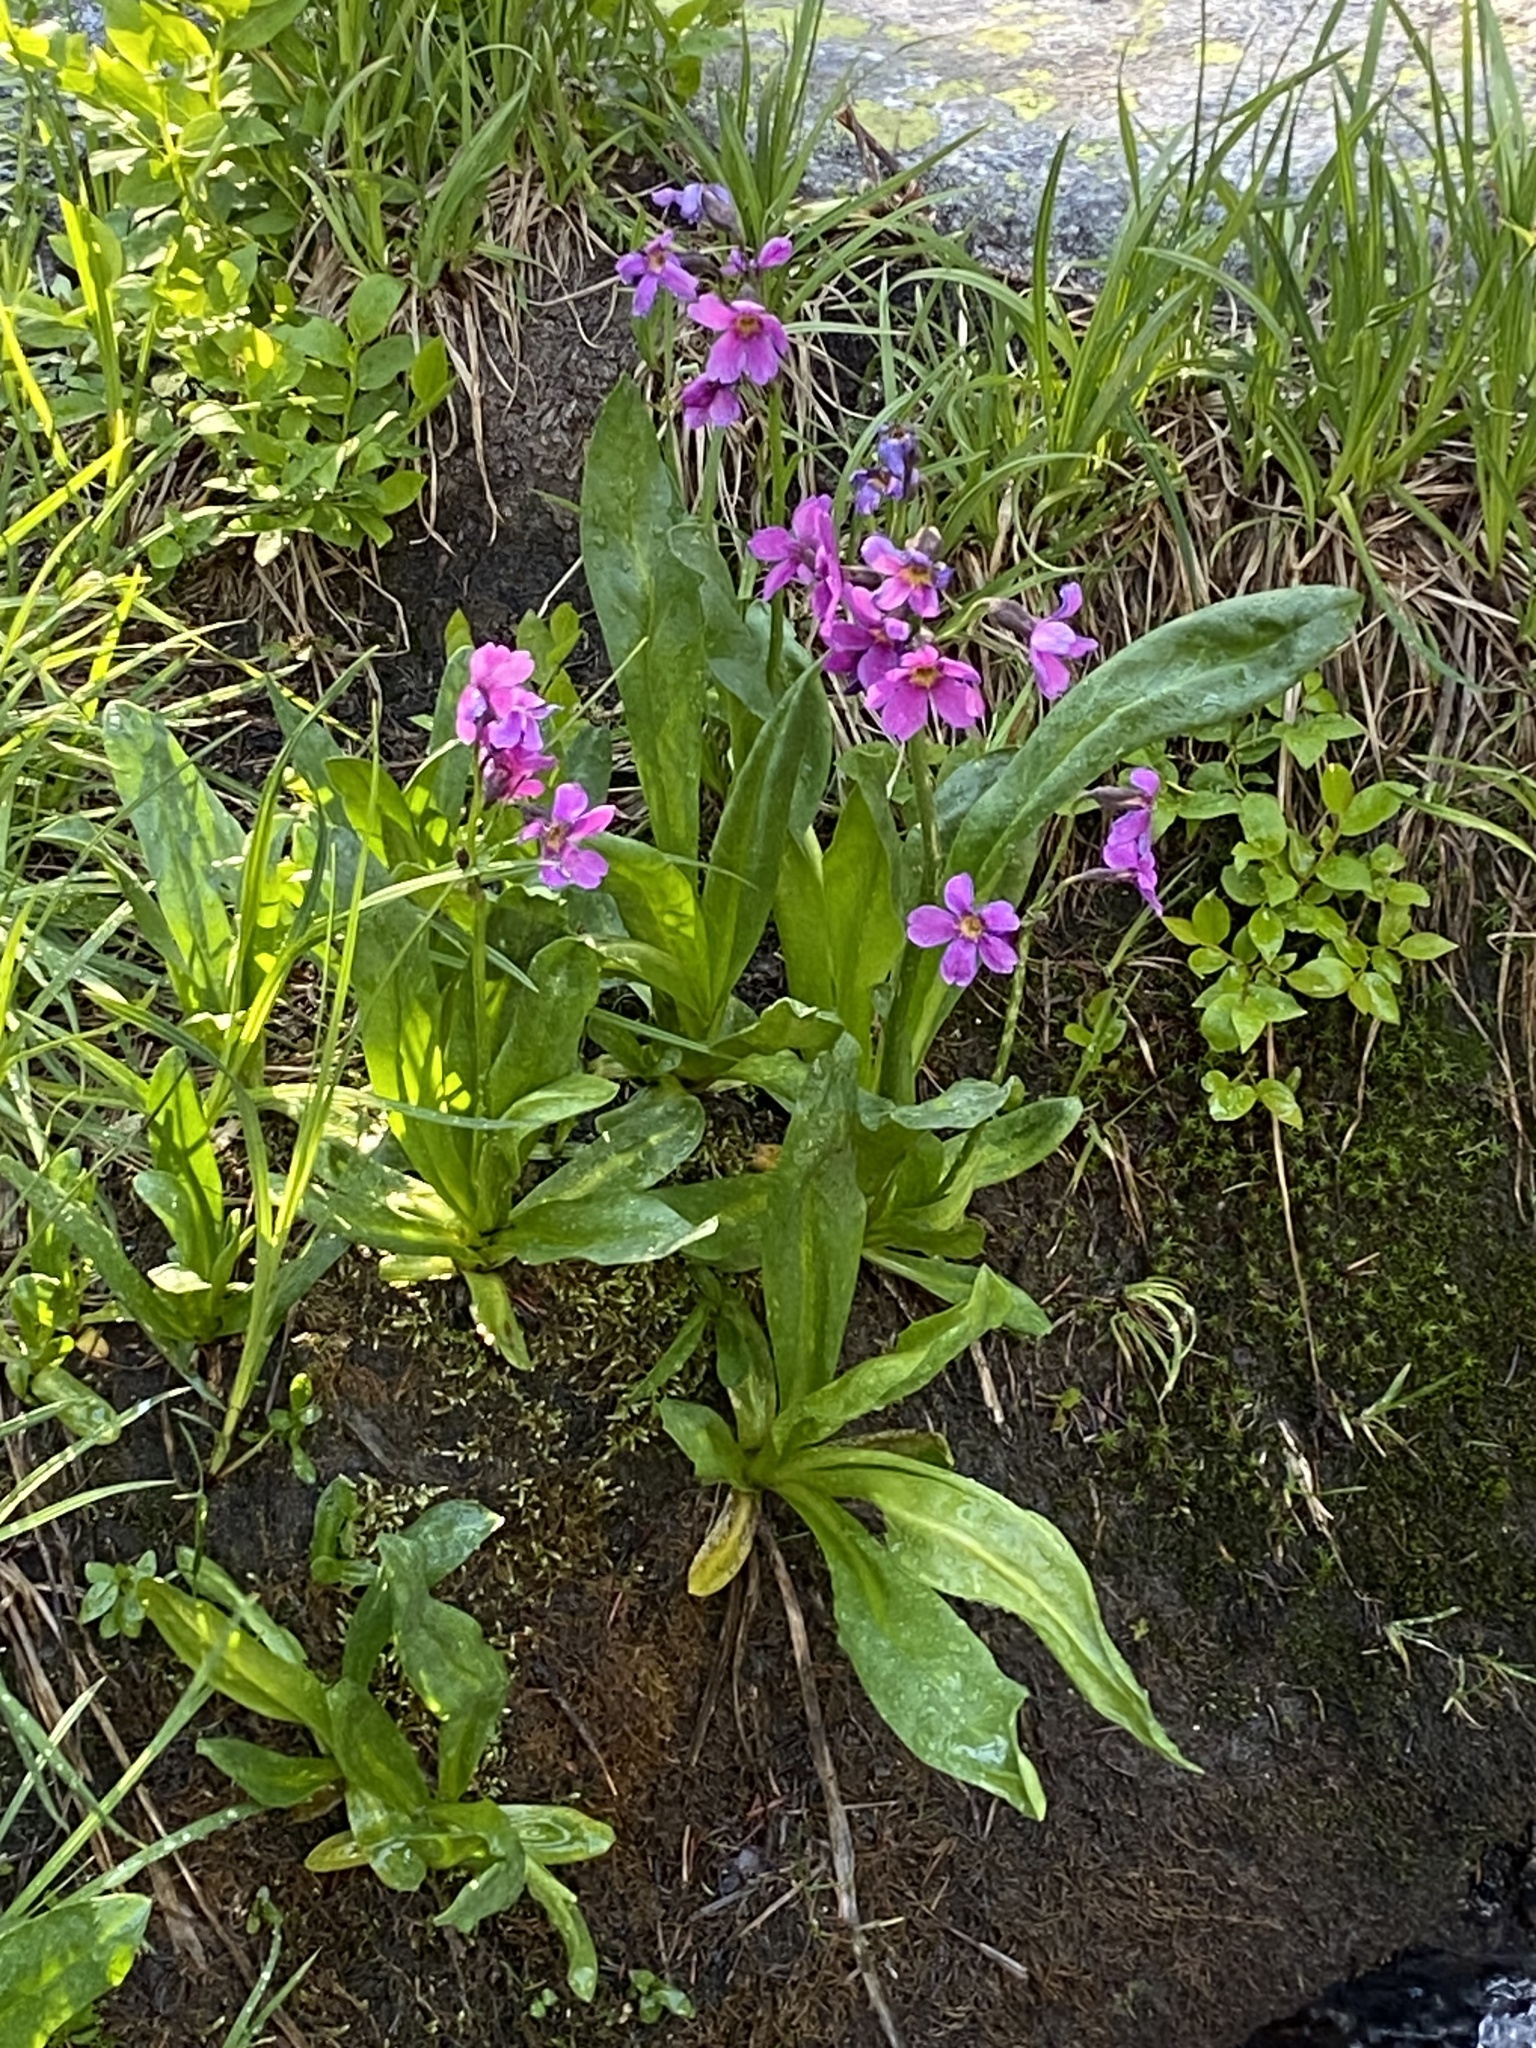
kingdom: Plantae
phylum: Tracheophyta
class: Magnoliopsida
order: Ericales
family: Primulaceae
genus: Primula
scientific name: Primula parryi
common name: Parry's primrose
